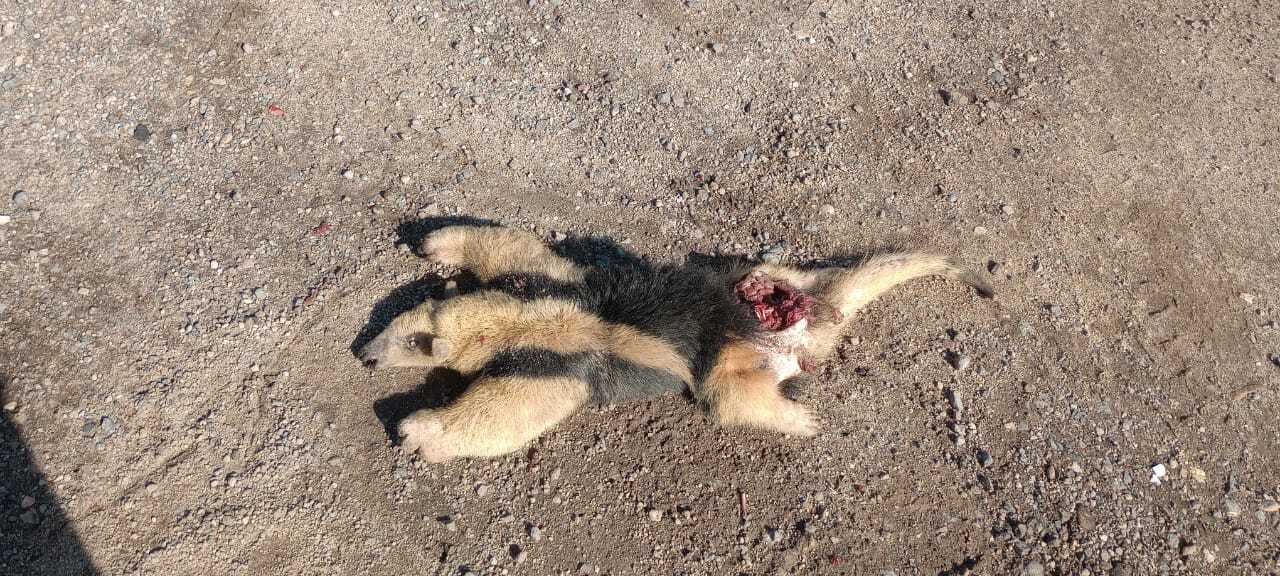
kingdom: Animalia
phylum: Chordata
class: Mammalia
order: Pilosa
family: Myrmecophagidae
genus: Tamandua
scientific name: Tamandua tetradactyla
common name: Southern tamandua
